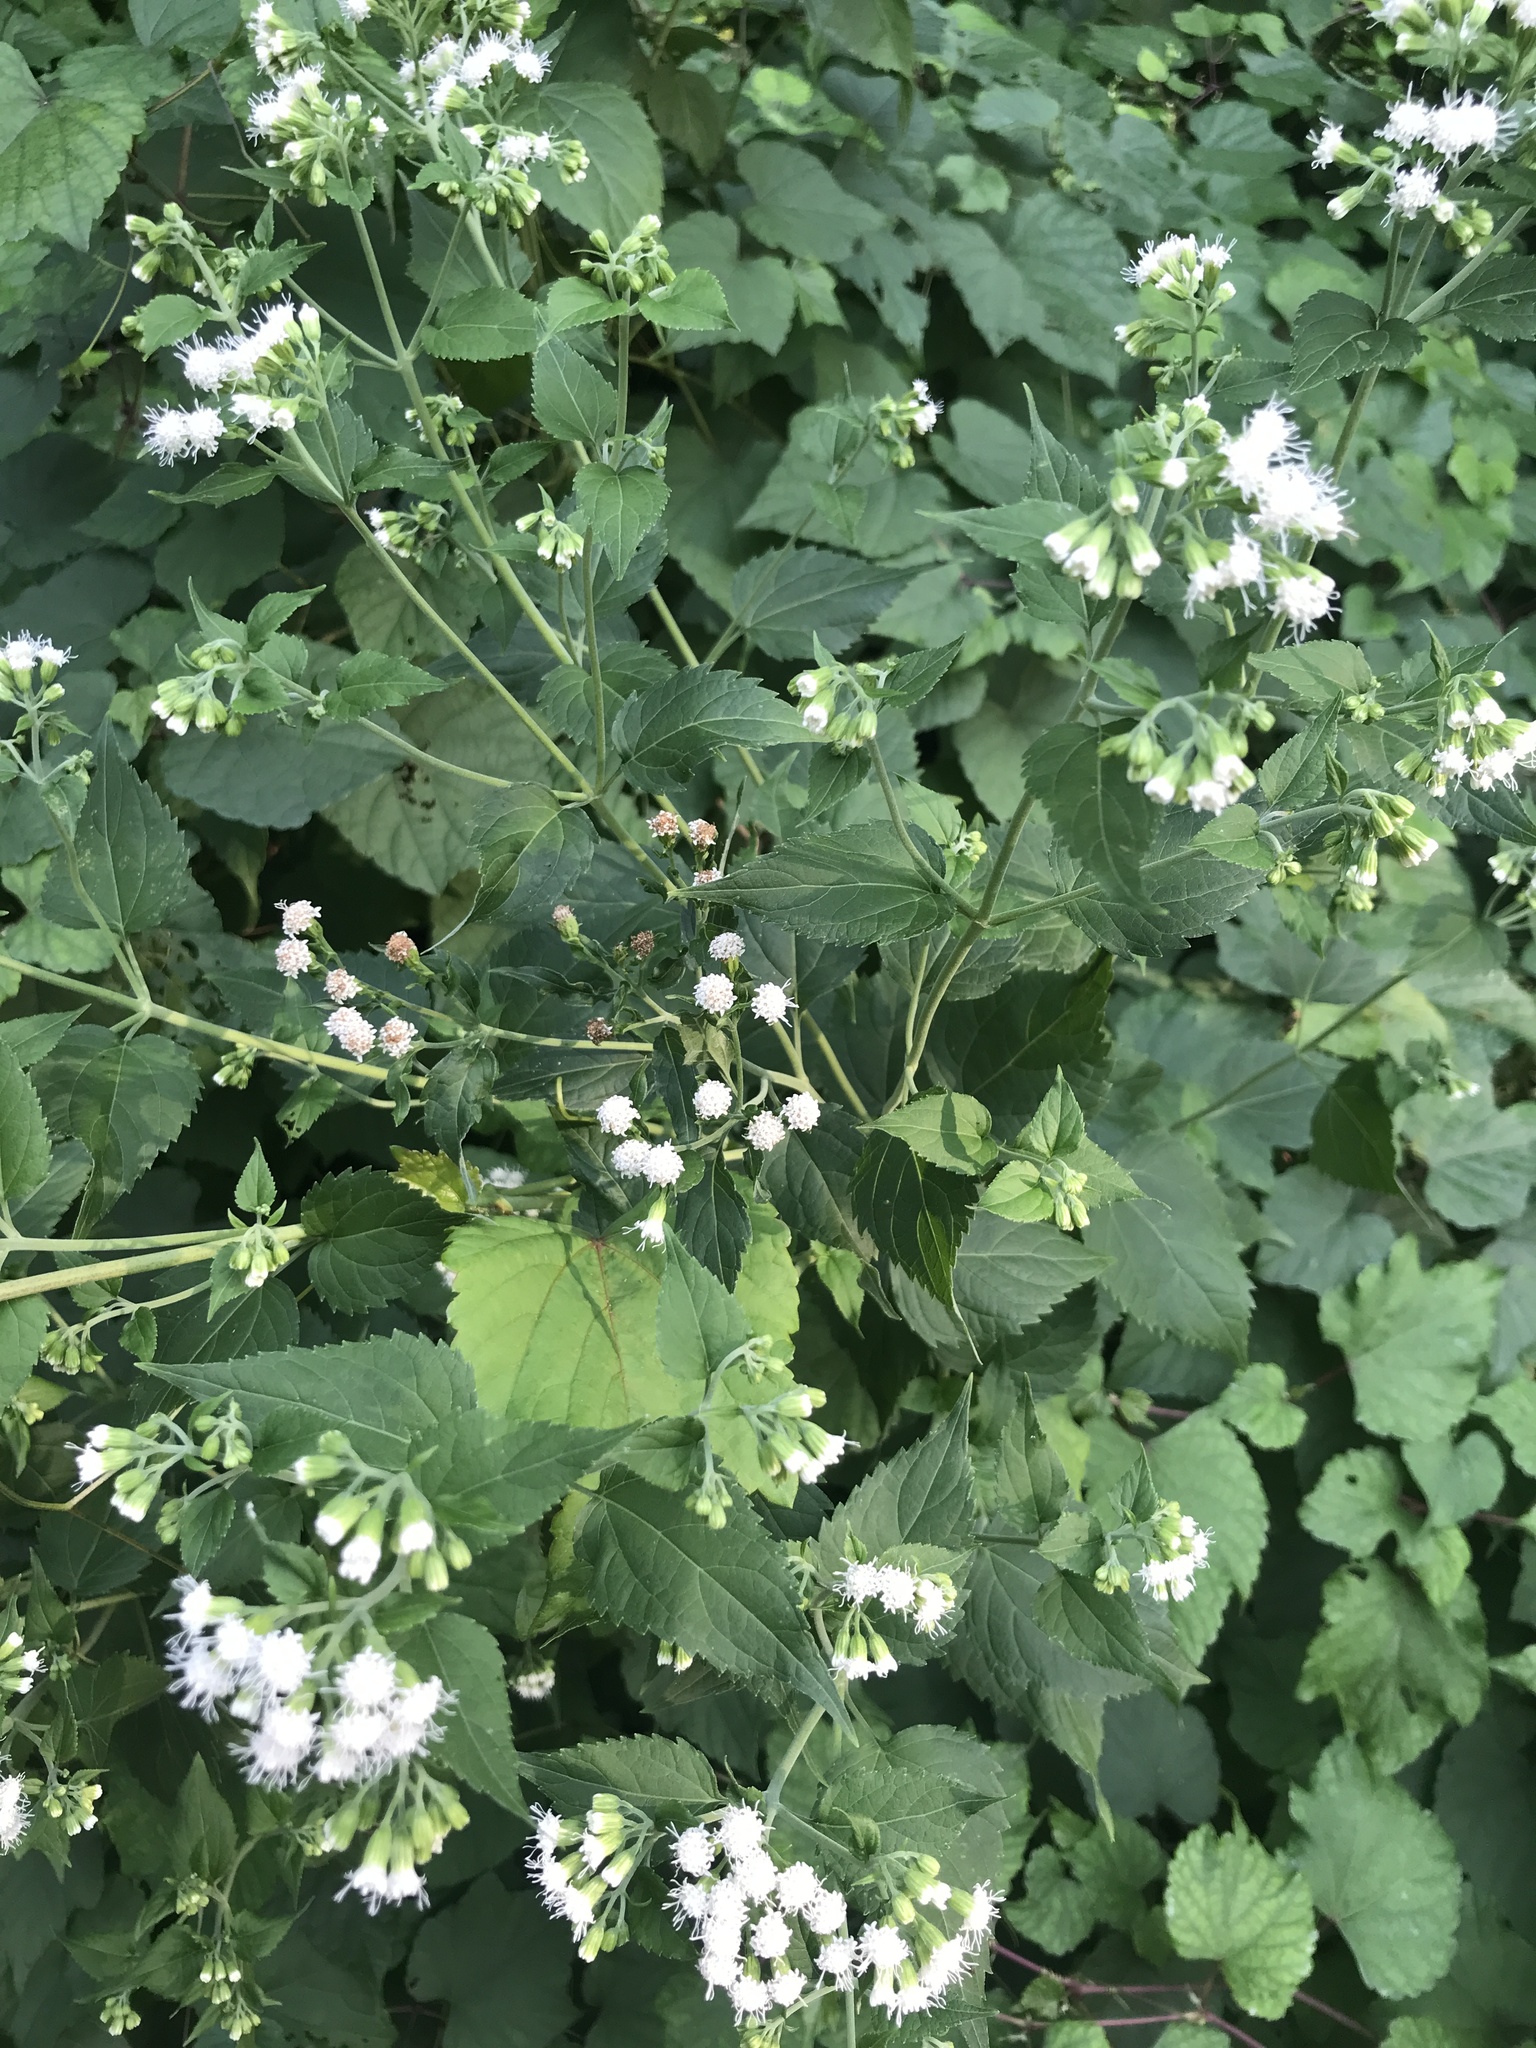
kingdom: Plantae
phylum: Tracheophyta
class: Magnoliopsida
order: Asterales
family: Asteraceae
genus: Ageratina
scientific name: Ageratina altissima
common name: White snakeroot
